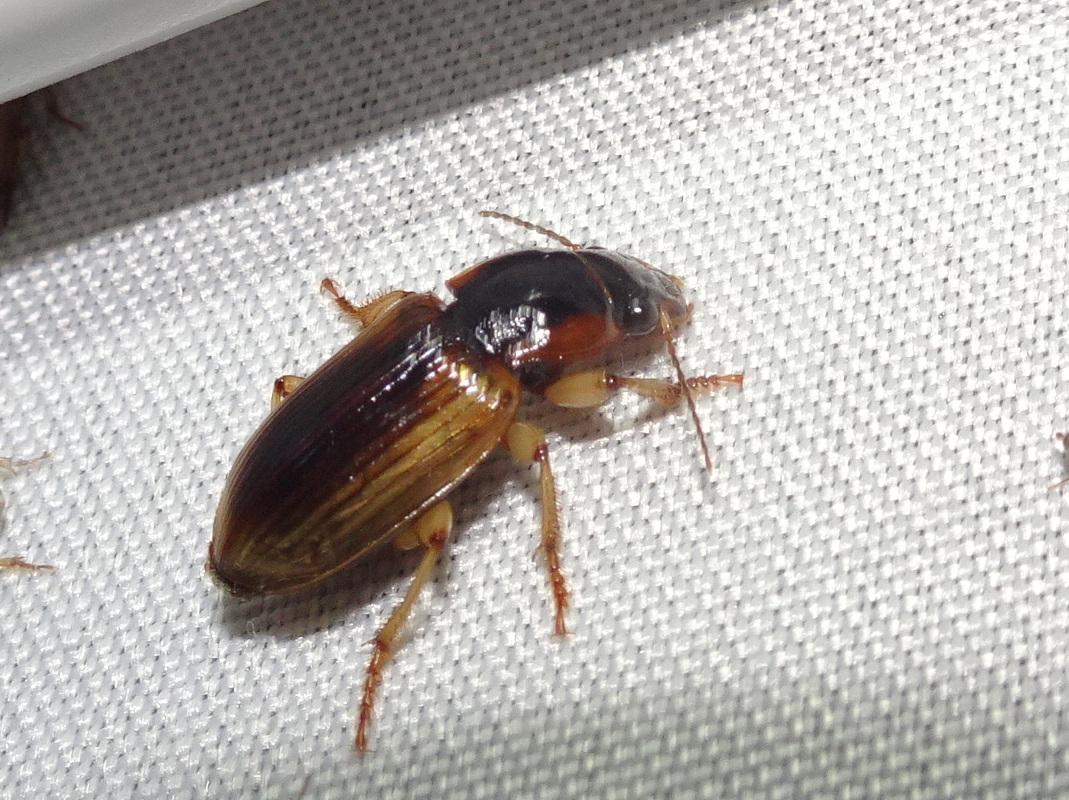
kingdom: Animalia
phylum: Arthropoda
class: Insecta
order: Coleoptera
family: Carabidae
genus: Anisodactylus
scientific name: Anisodactylus discoideus
